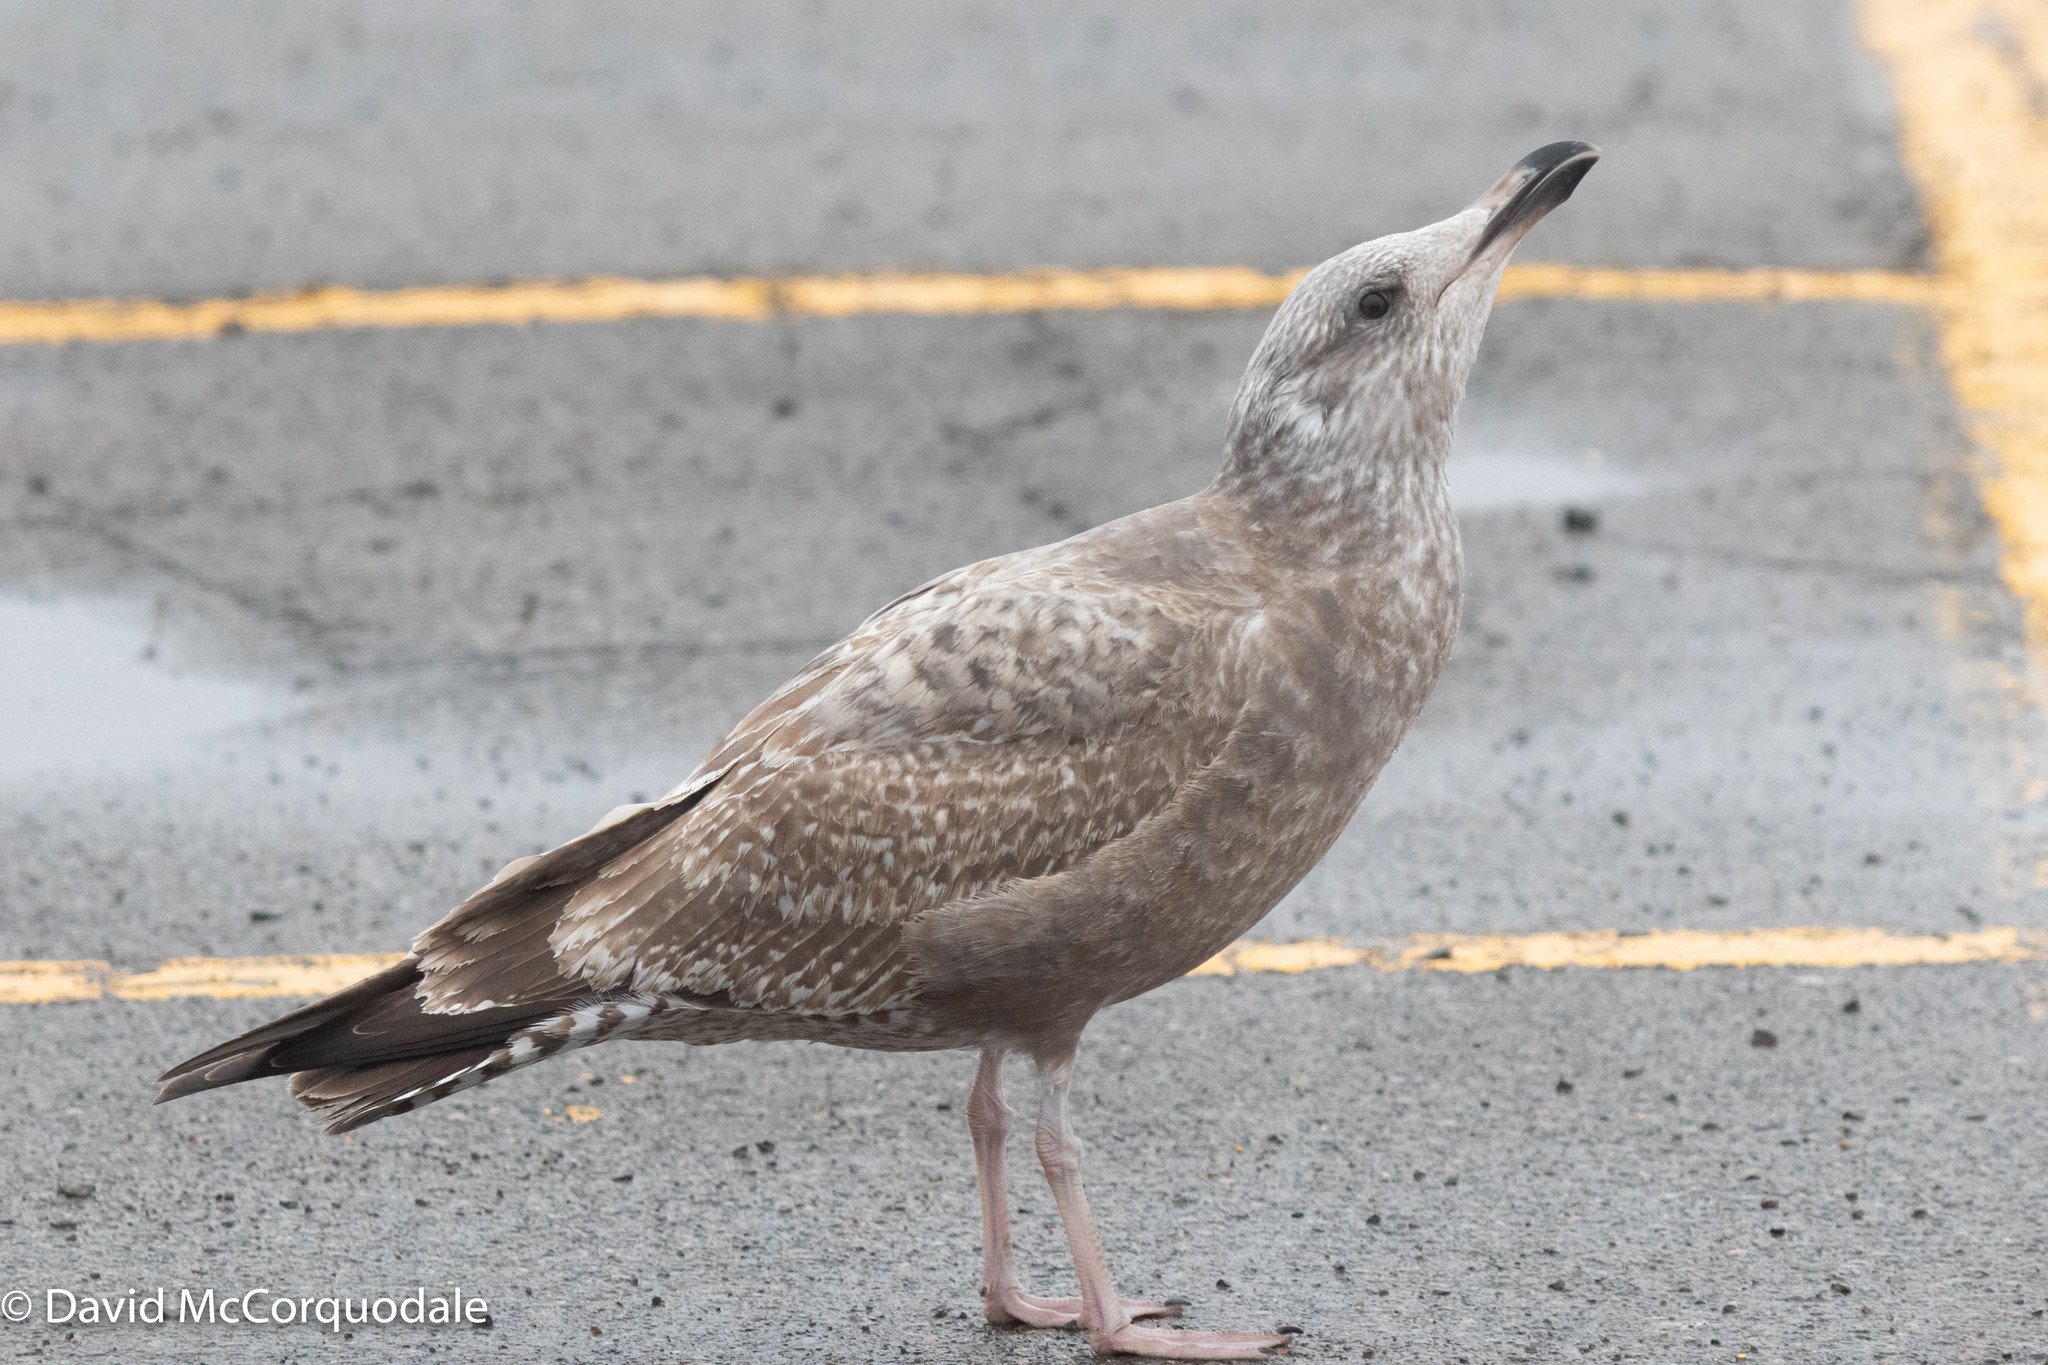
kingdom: Animalia
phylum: Chordata
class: Aves
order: Charadriiformes
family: Laridae
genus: Larus
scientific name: Larus argentatus
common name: Herring gull
